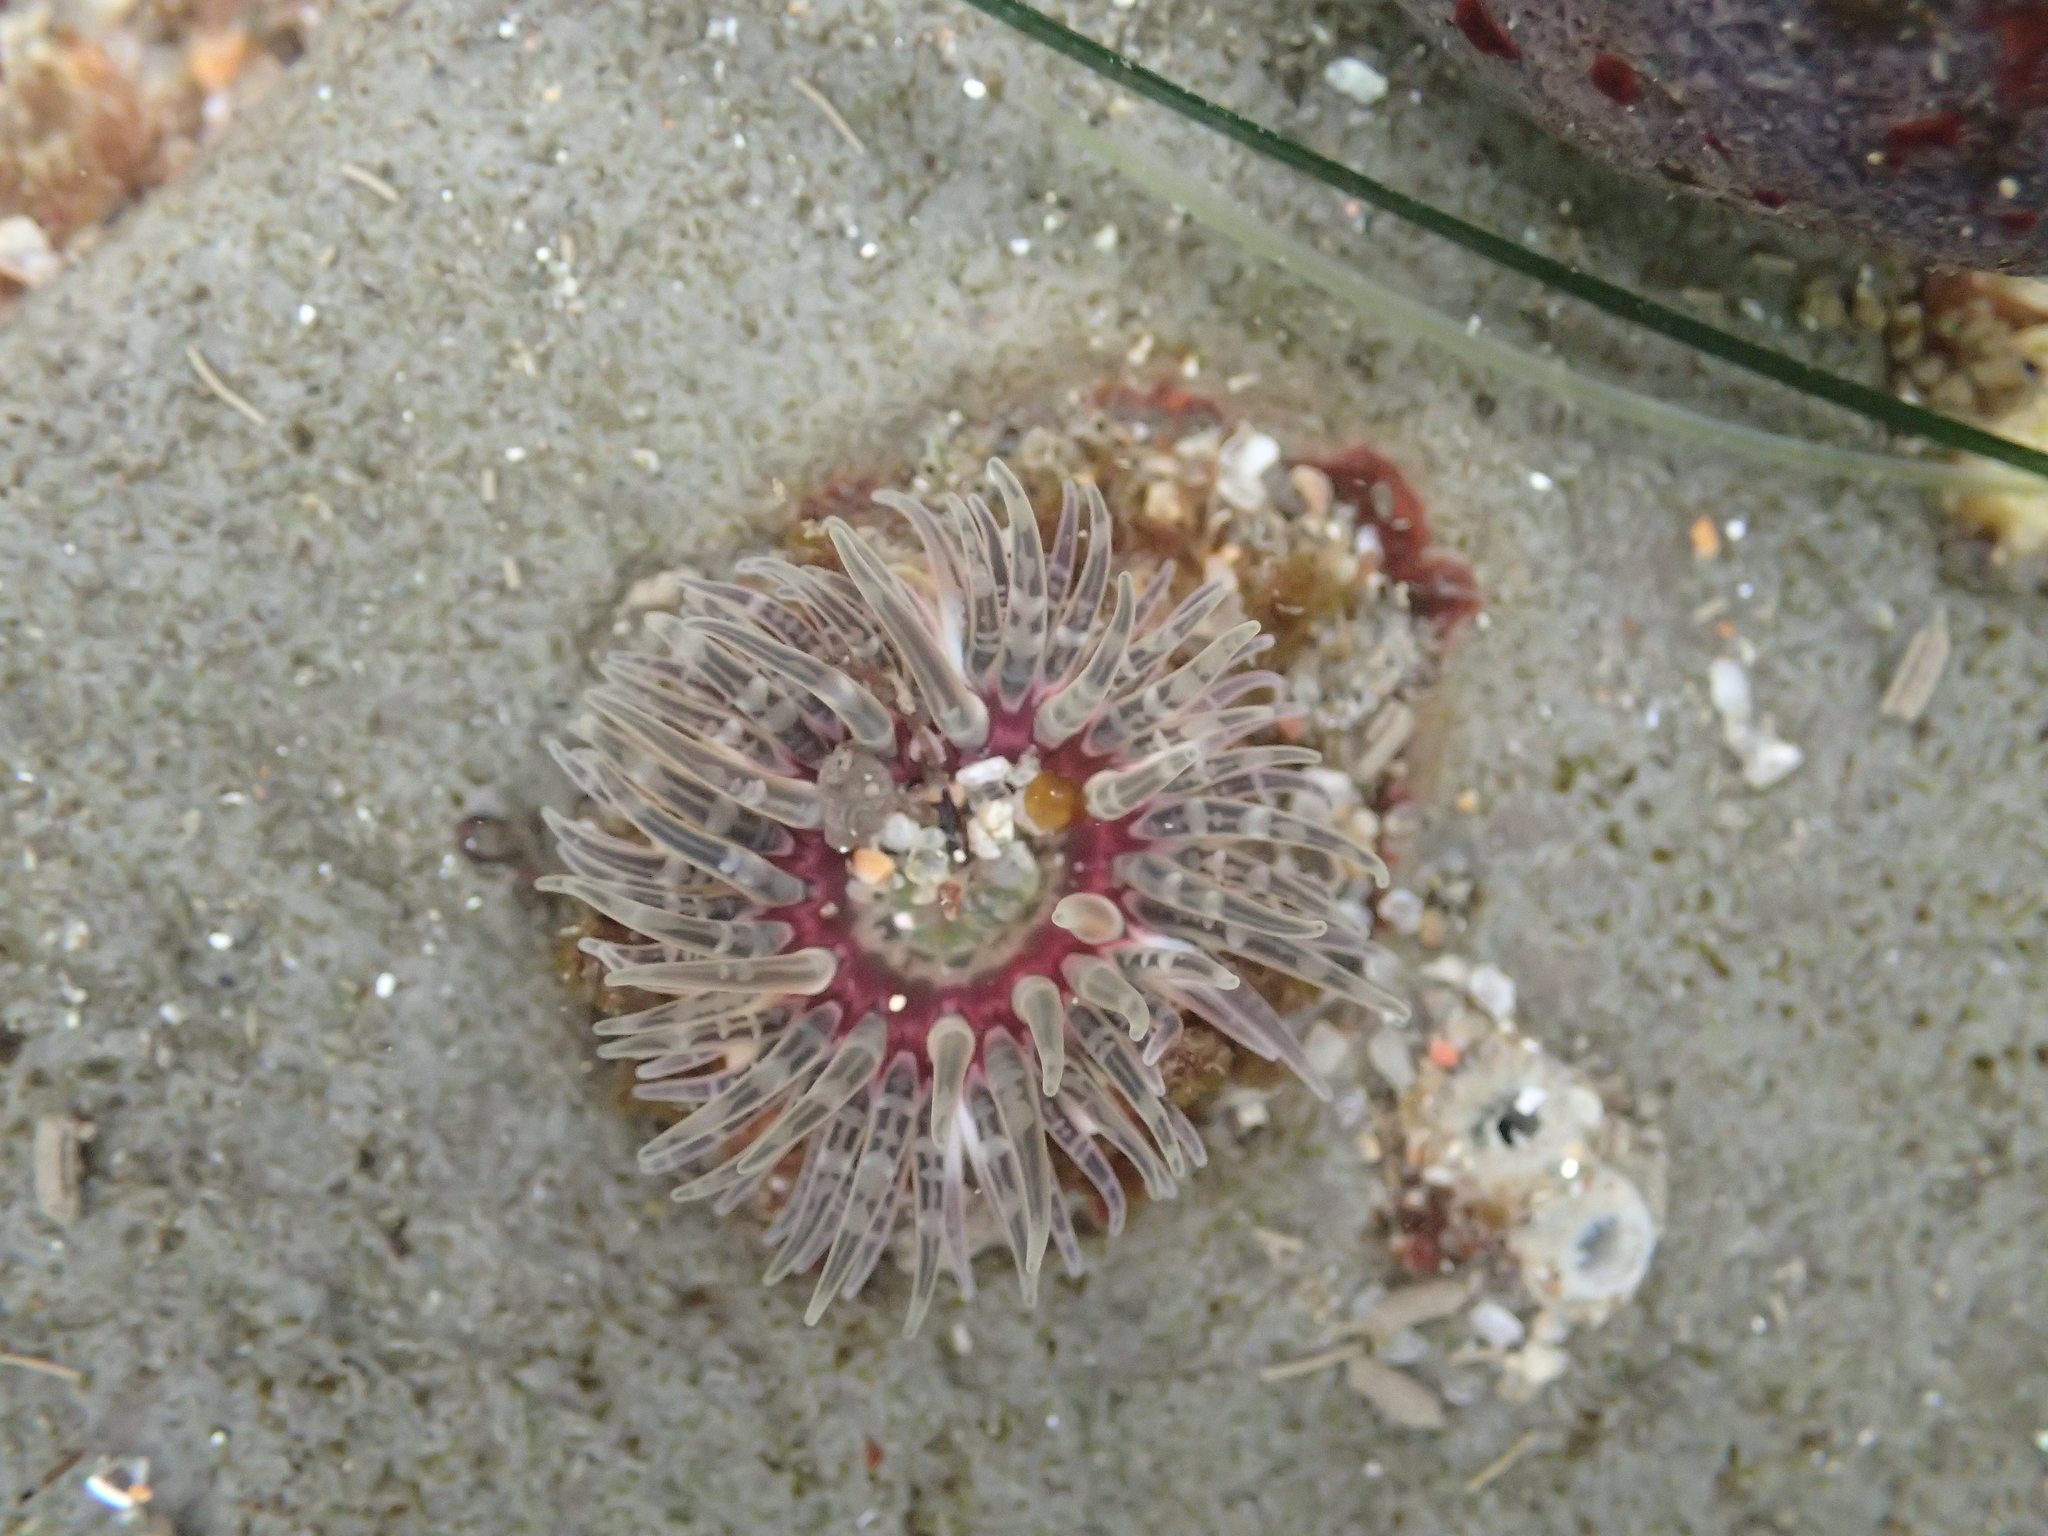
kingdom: Animalia
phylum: Cnidaria
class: Anthozoa
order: Actiniaria
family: Actiniidae
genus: Anthopleura
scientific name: Anthopleura artemisia
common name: Buried sea anemone
